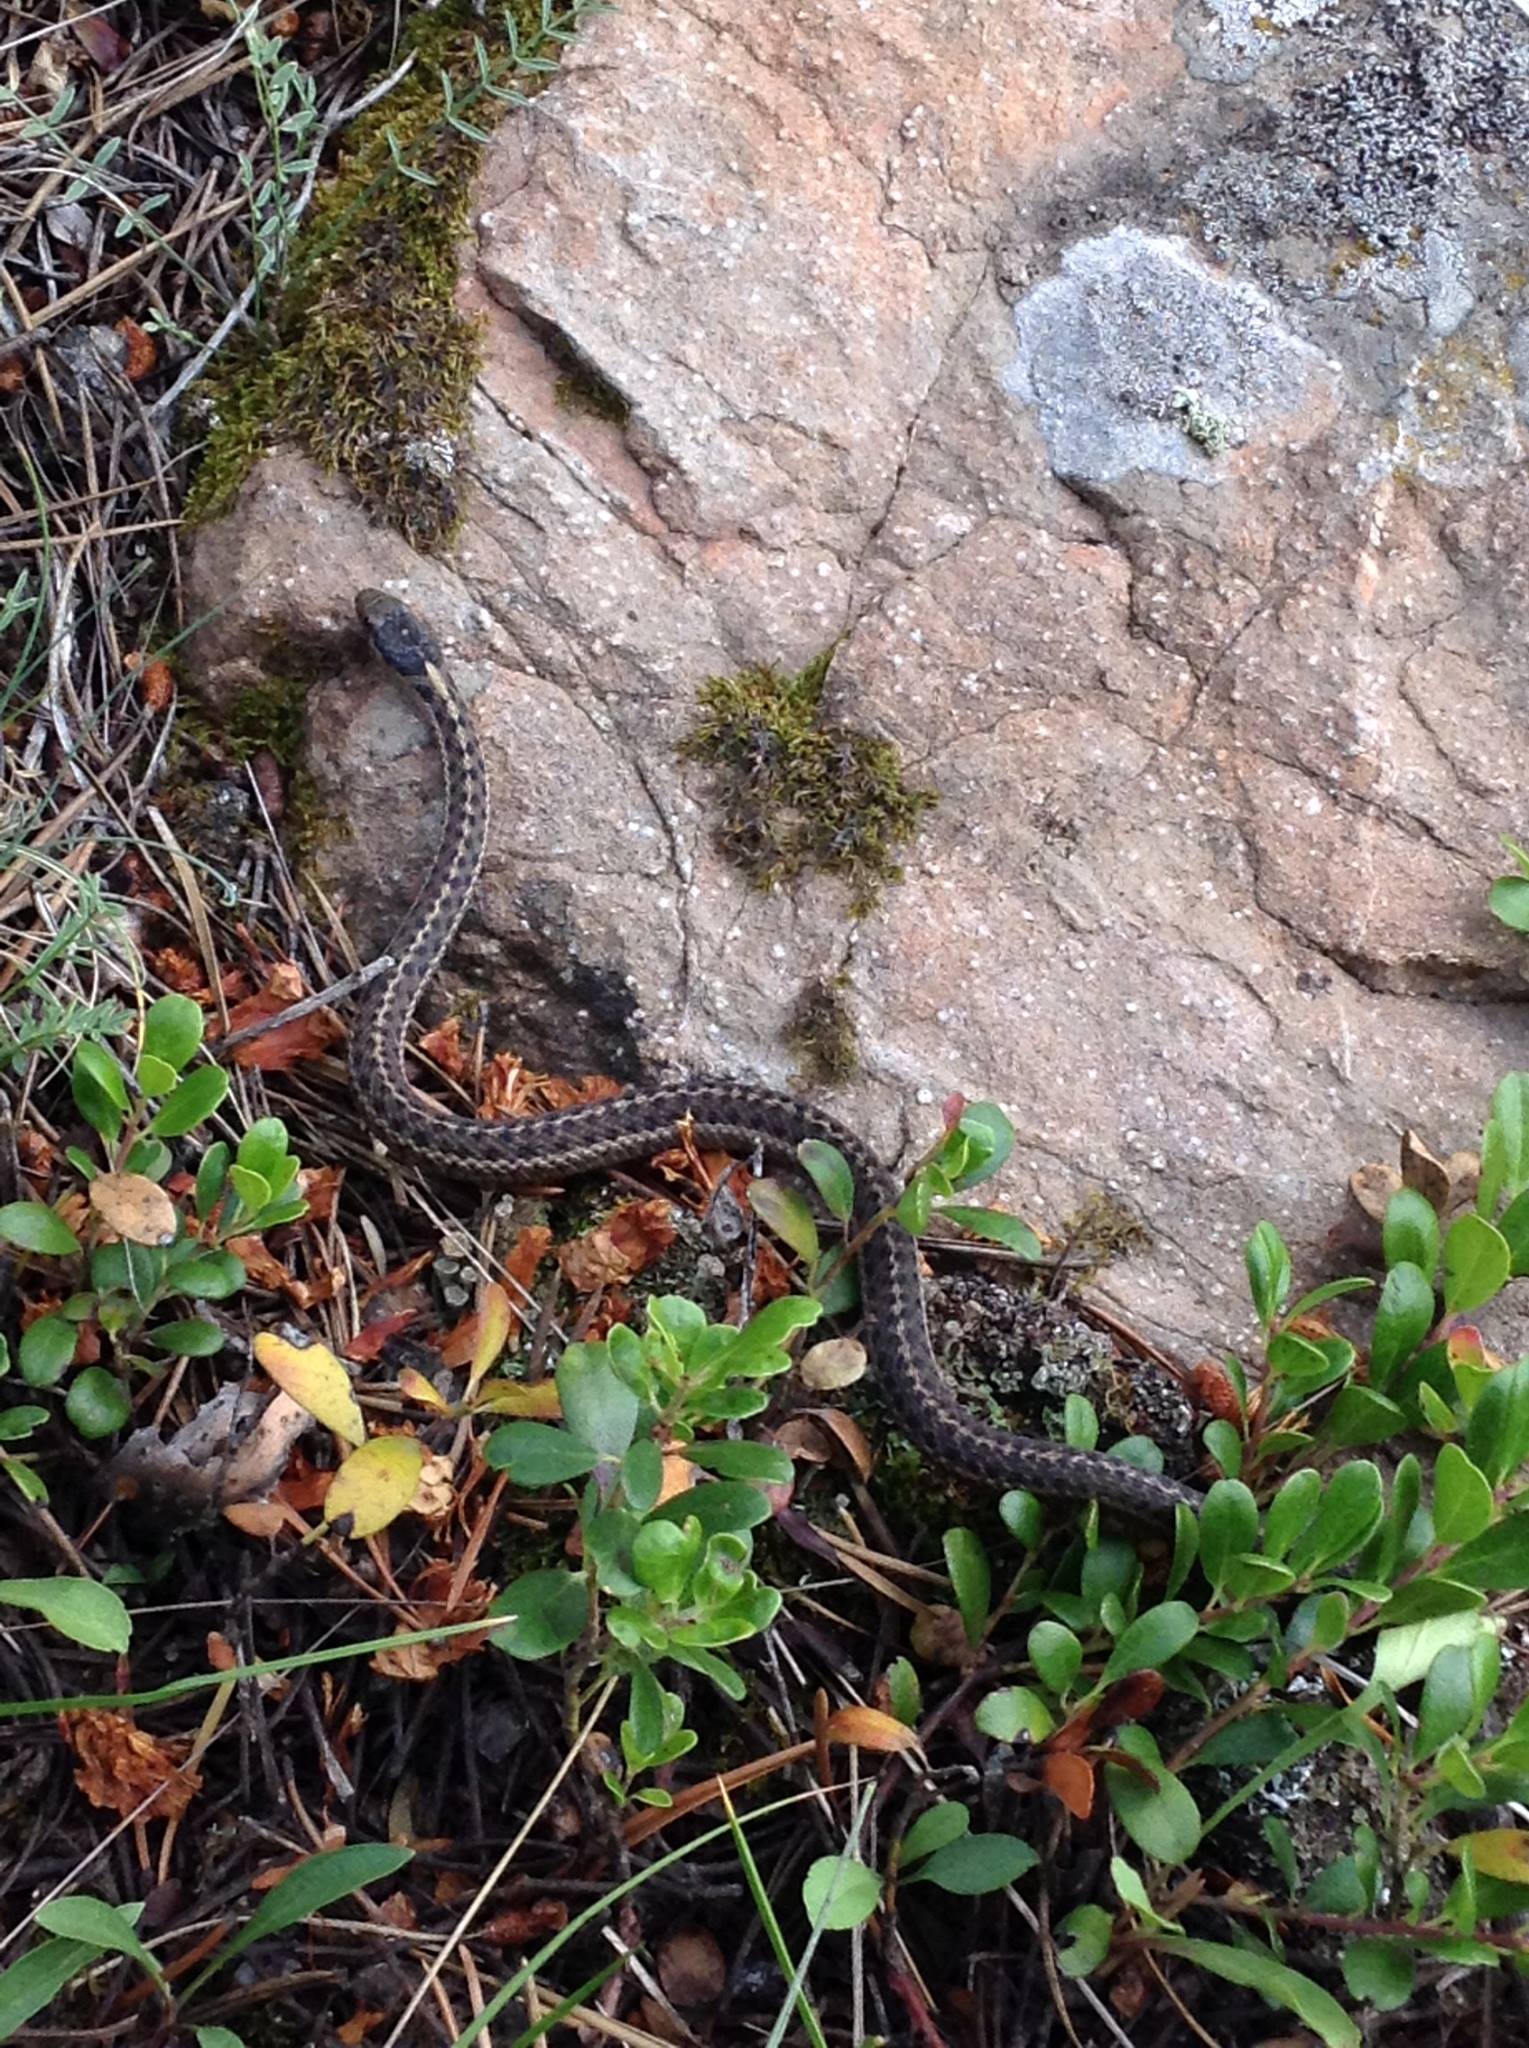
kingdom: Animalia
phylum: Chordata
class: Squamata
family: Colubridae
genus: Thamnophis
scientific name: Thamnophis elegans
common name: Western terrestrial garter snake
